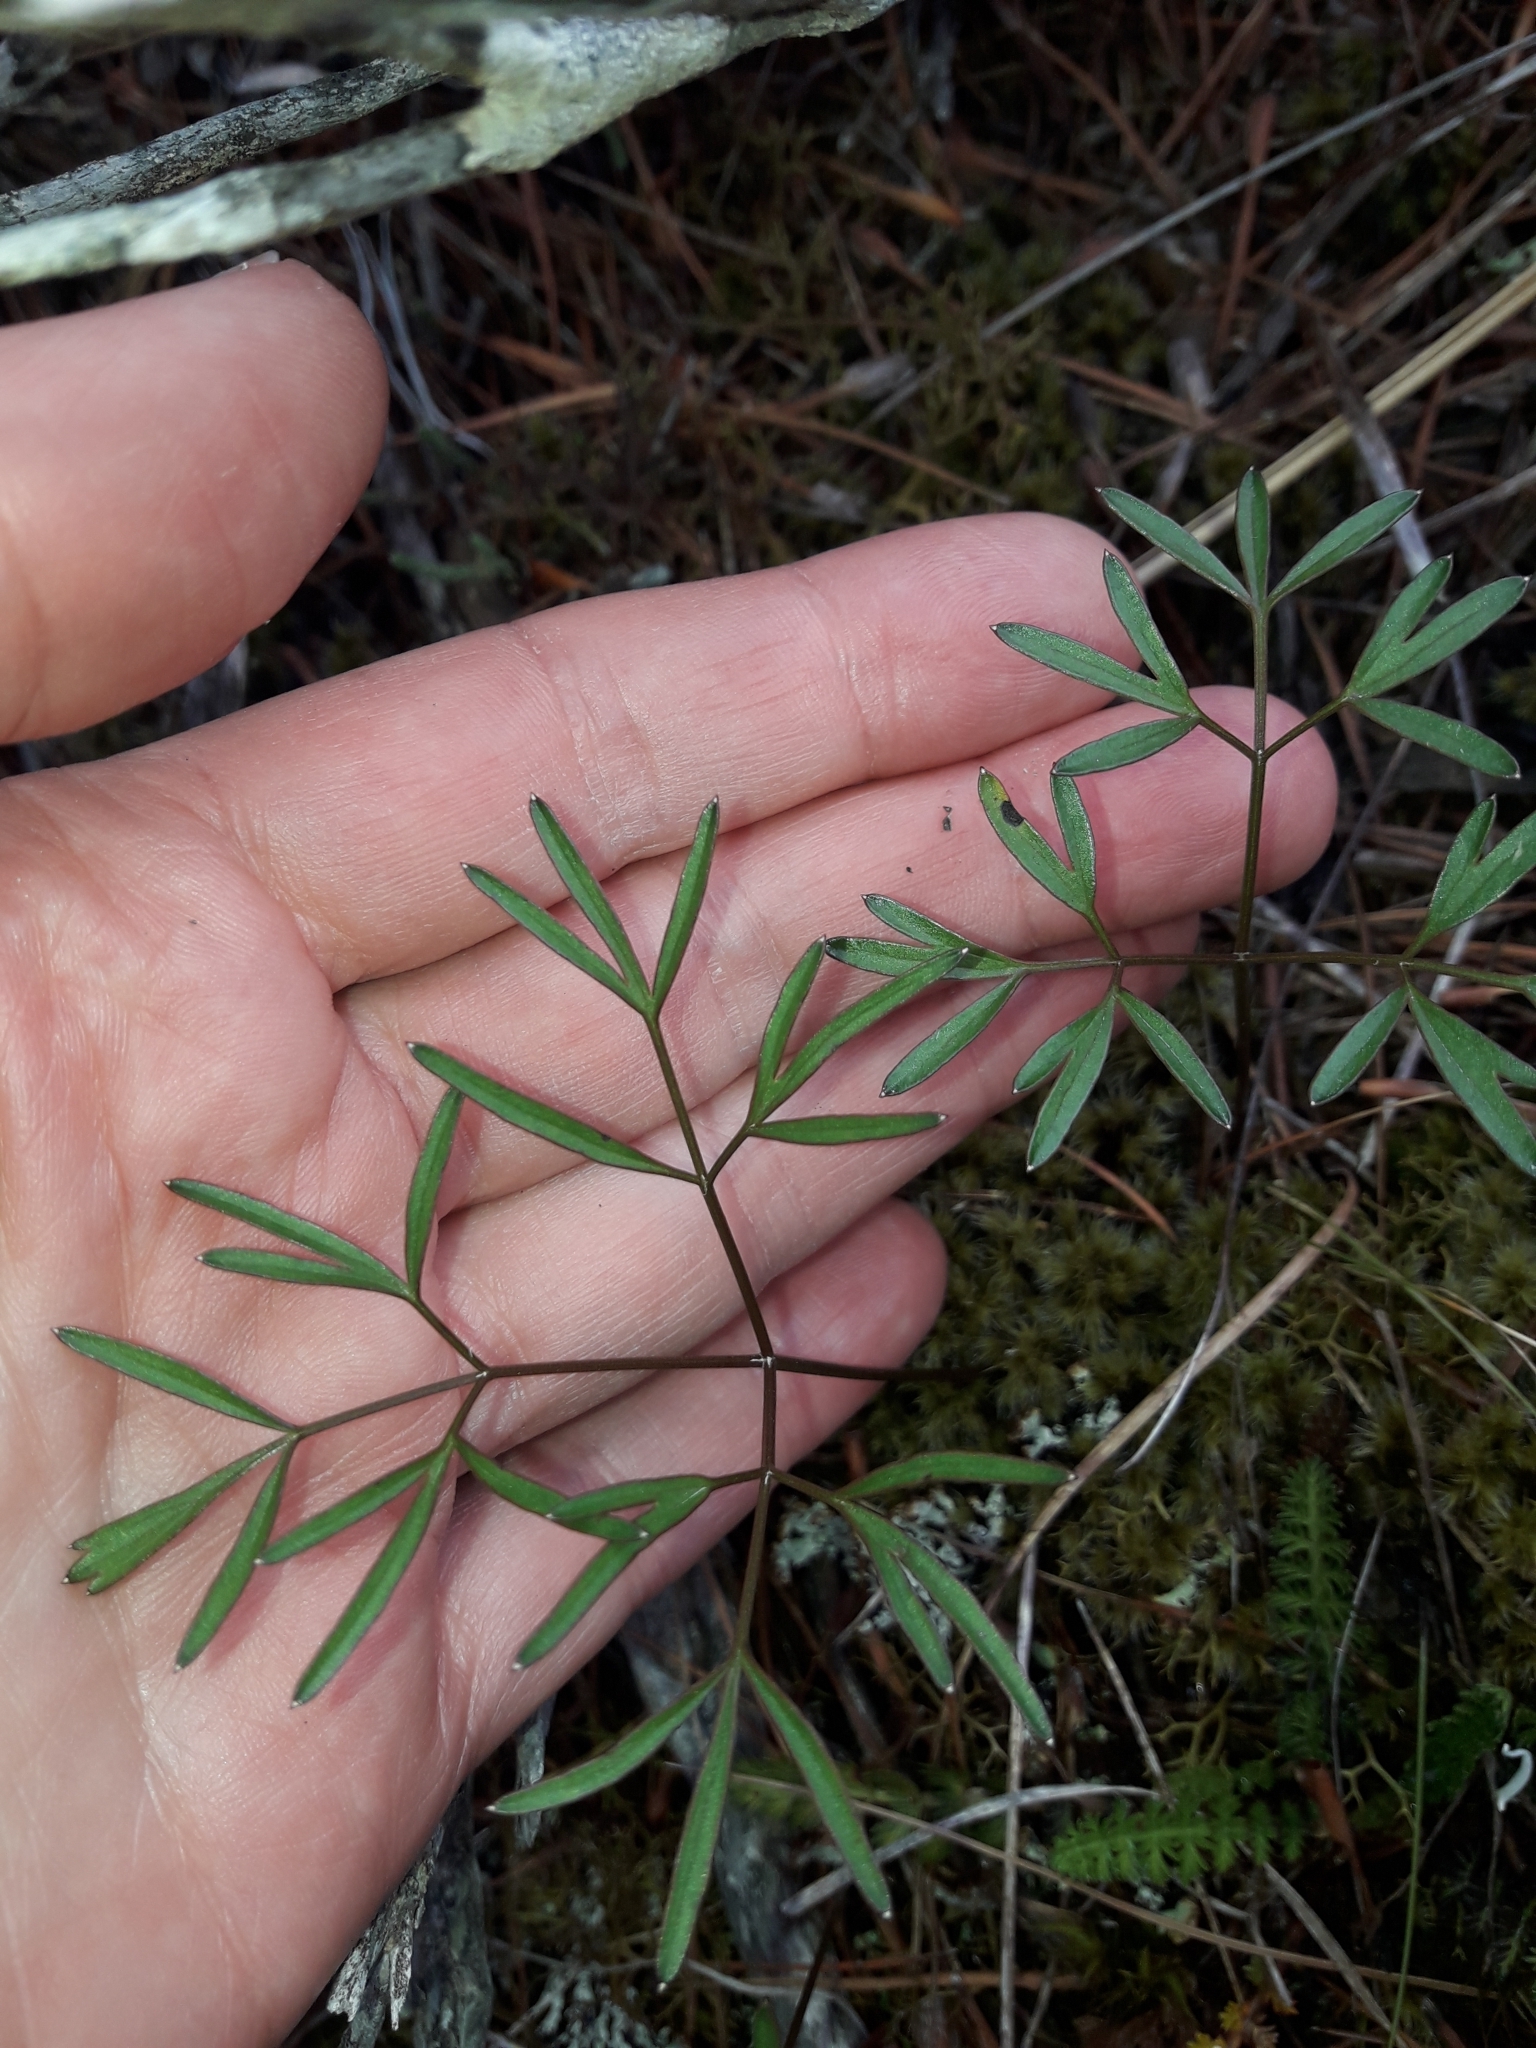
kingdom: Plantae
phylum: Tracheophyta
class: Magnoliopsida
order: Apiales
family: Apiaceae
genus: Anisotome
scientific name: Anisotome filifolia
